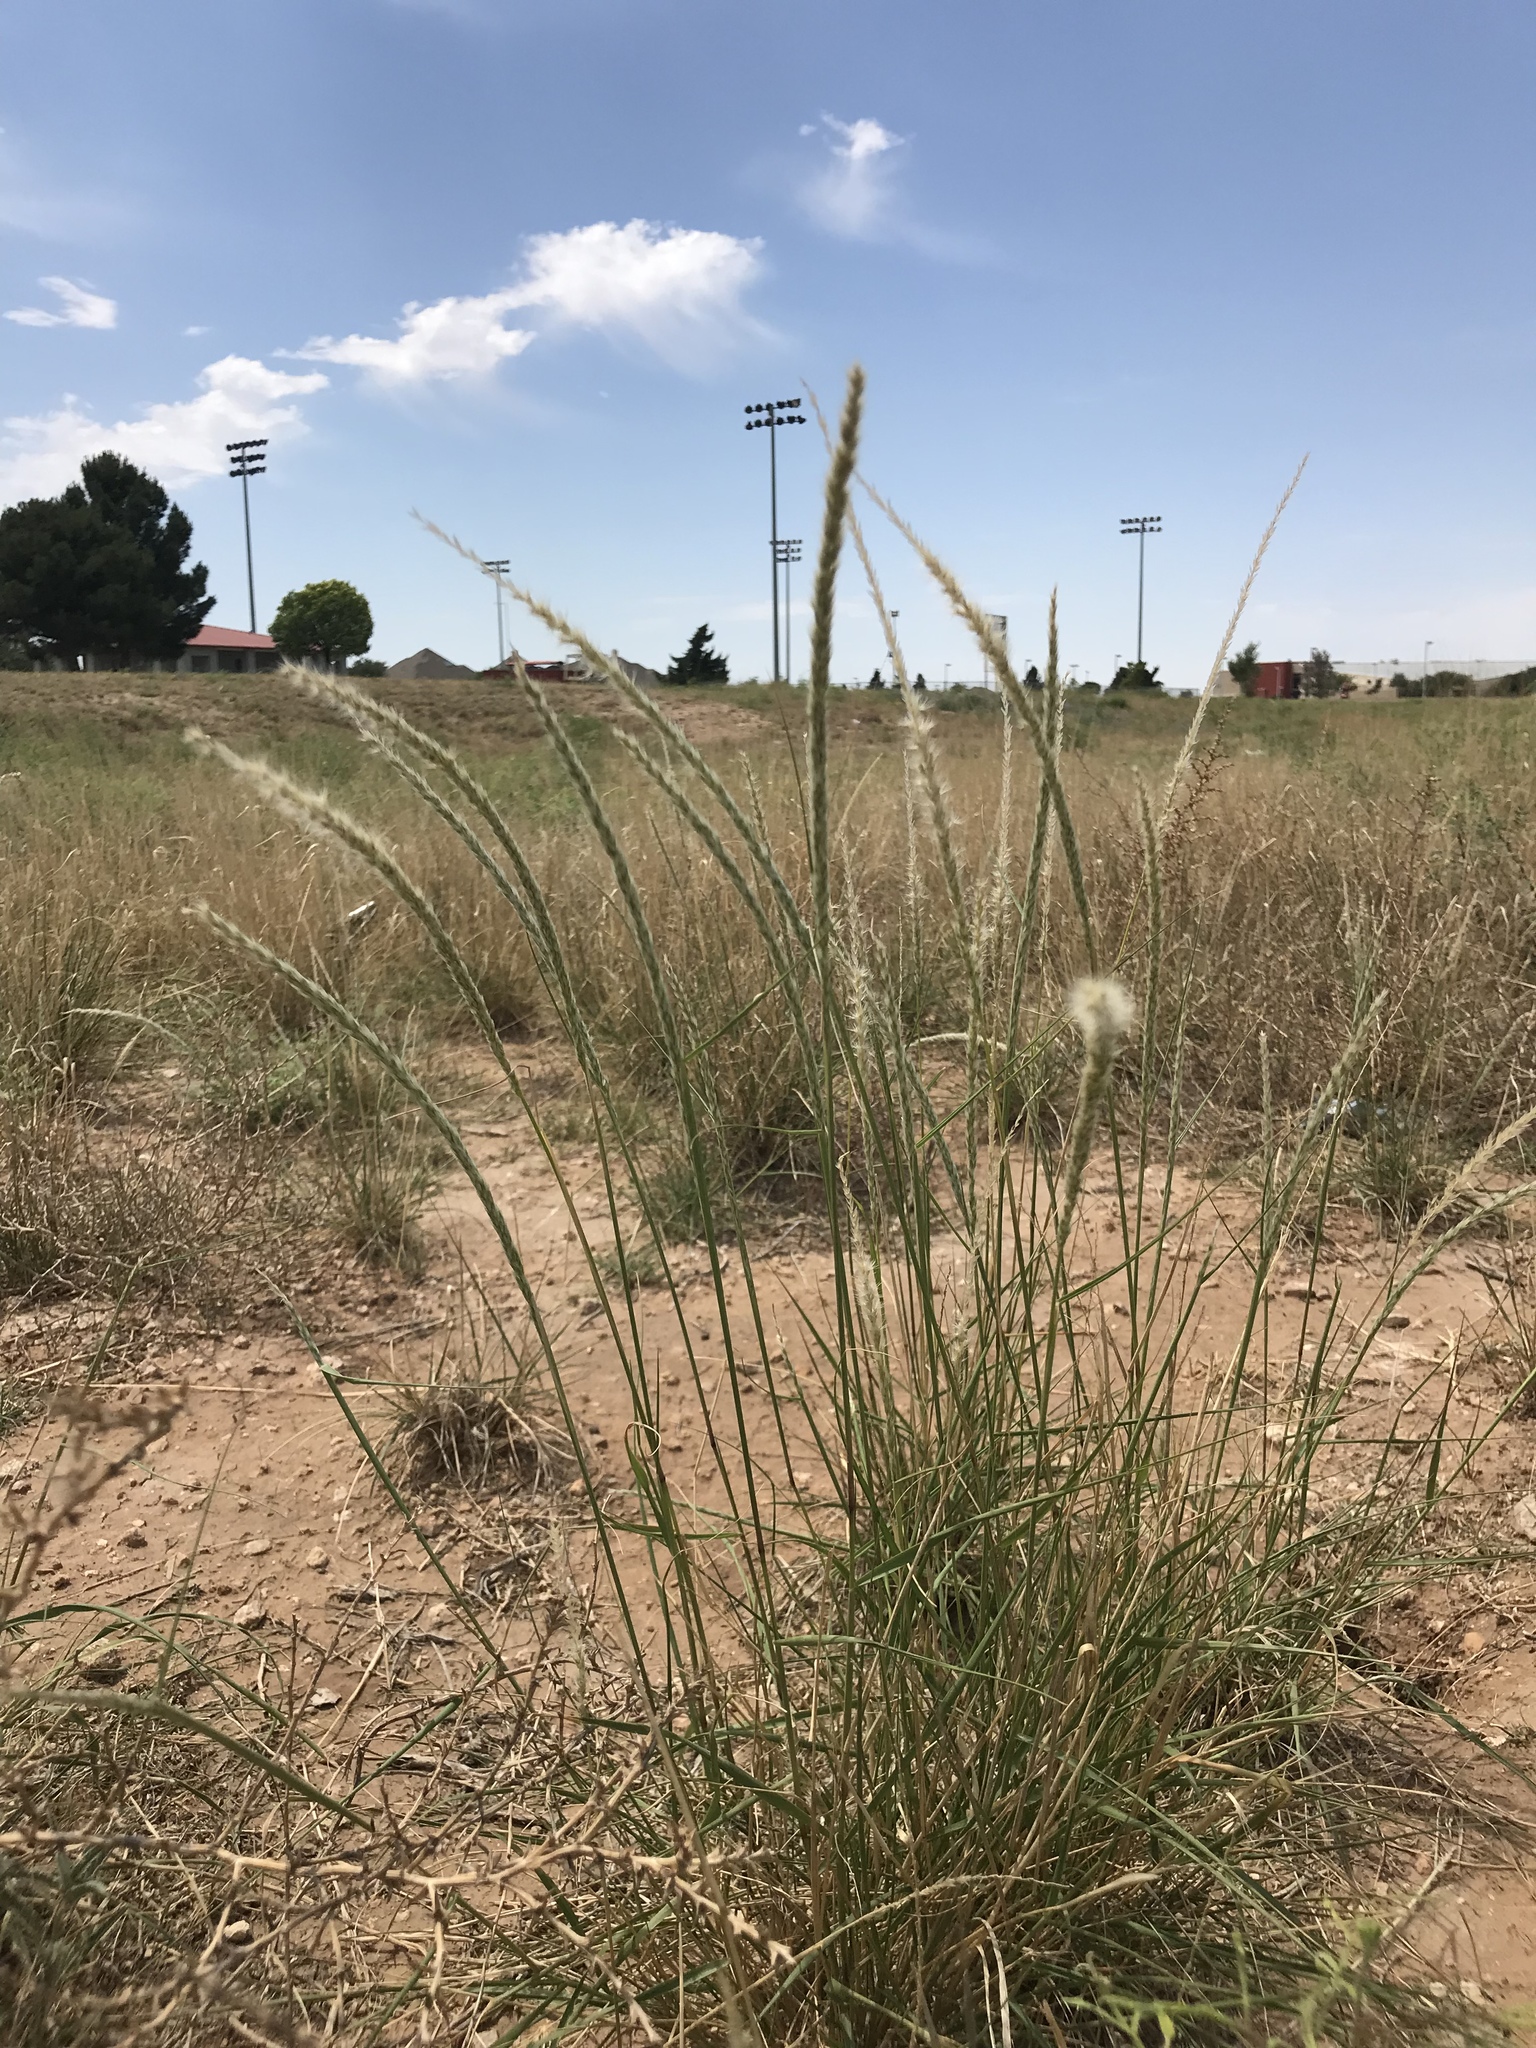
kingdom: Plantae
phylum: Tracheophyta
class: Liliopsida
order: Poales
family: Poaceae
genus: Pappophorum
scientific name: Pappophorum
